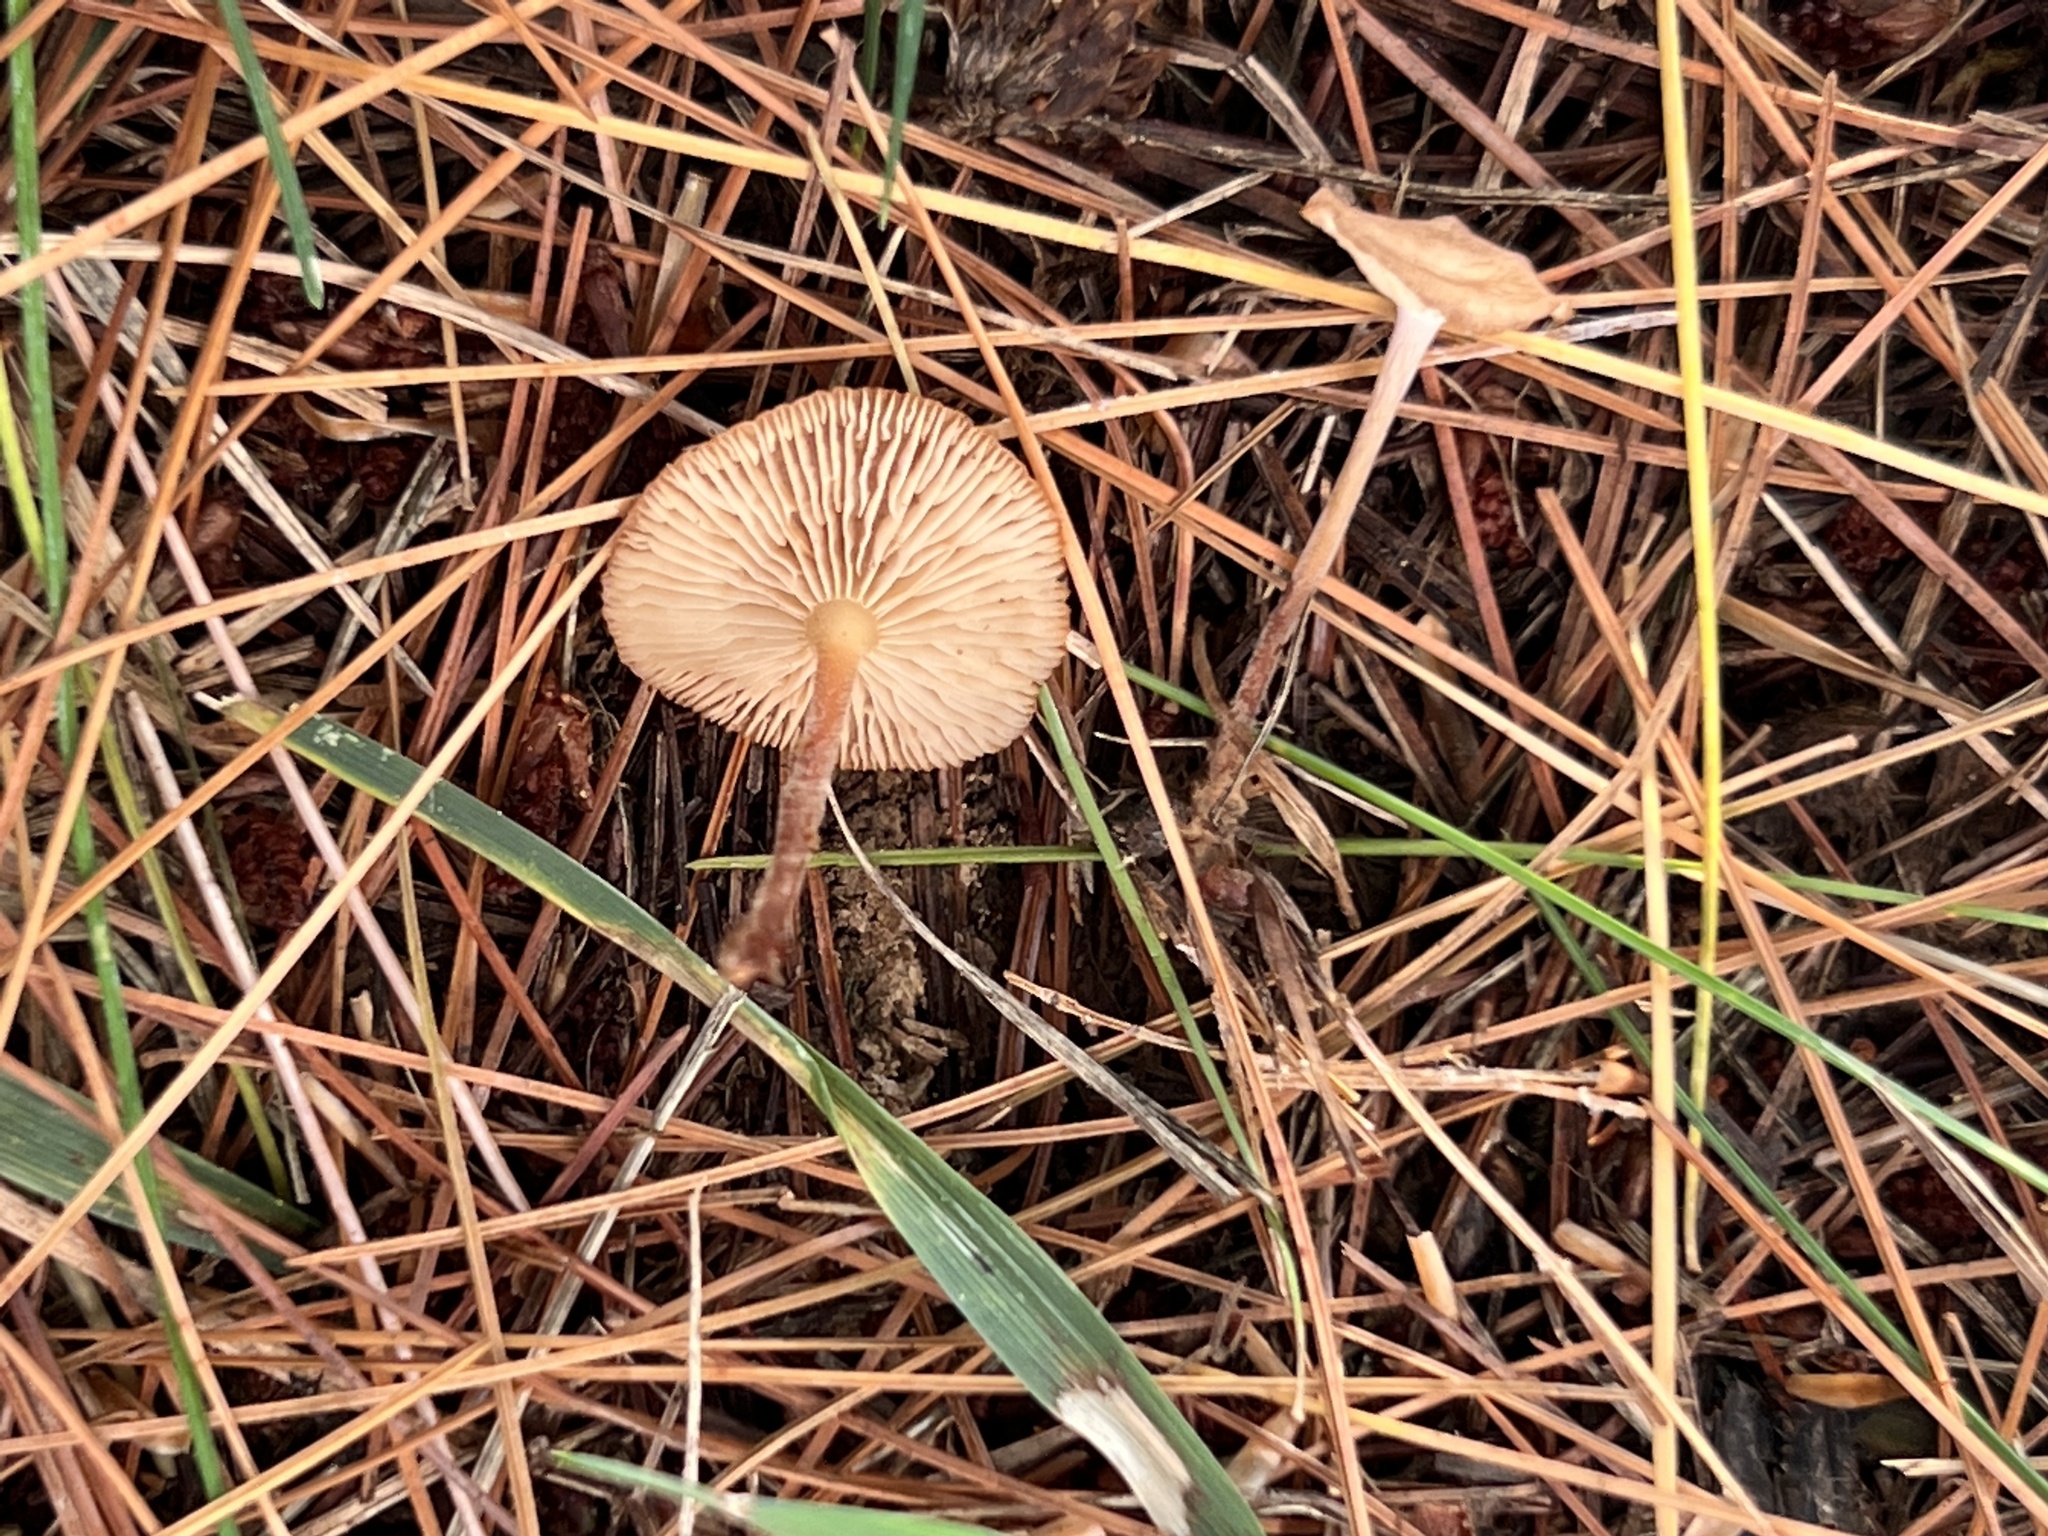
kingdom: Fungi
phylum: Basidiomycota
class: Agaricomycetes
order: Agaricales
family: Omphalotaceae
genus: Collybiopsis
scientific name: Collybiopsis biformis
